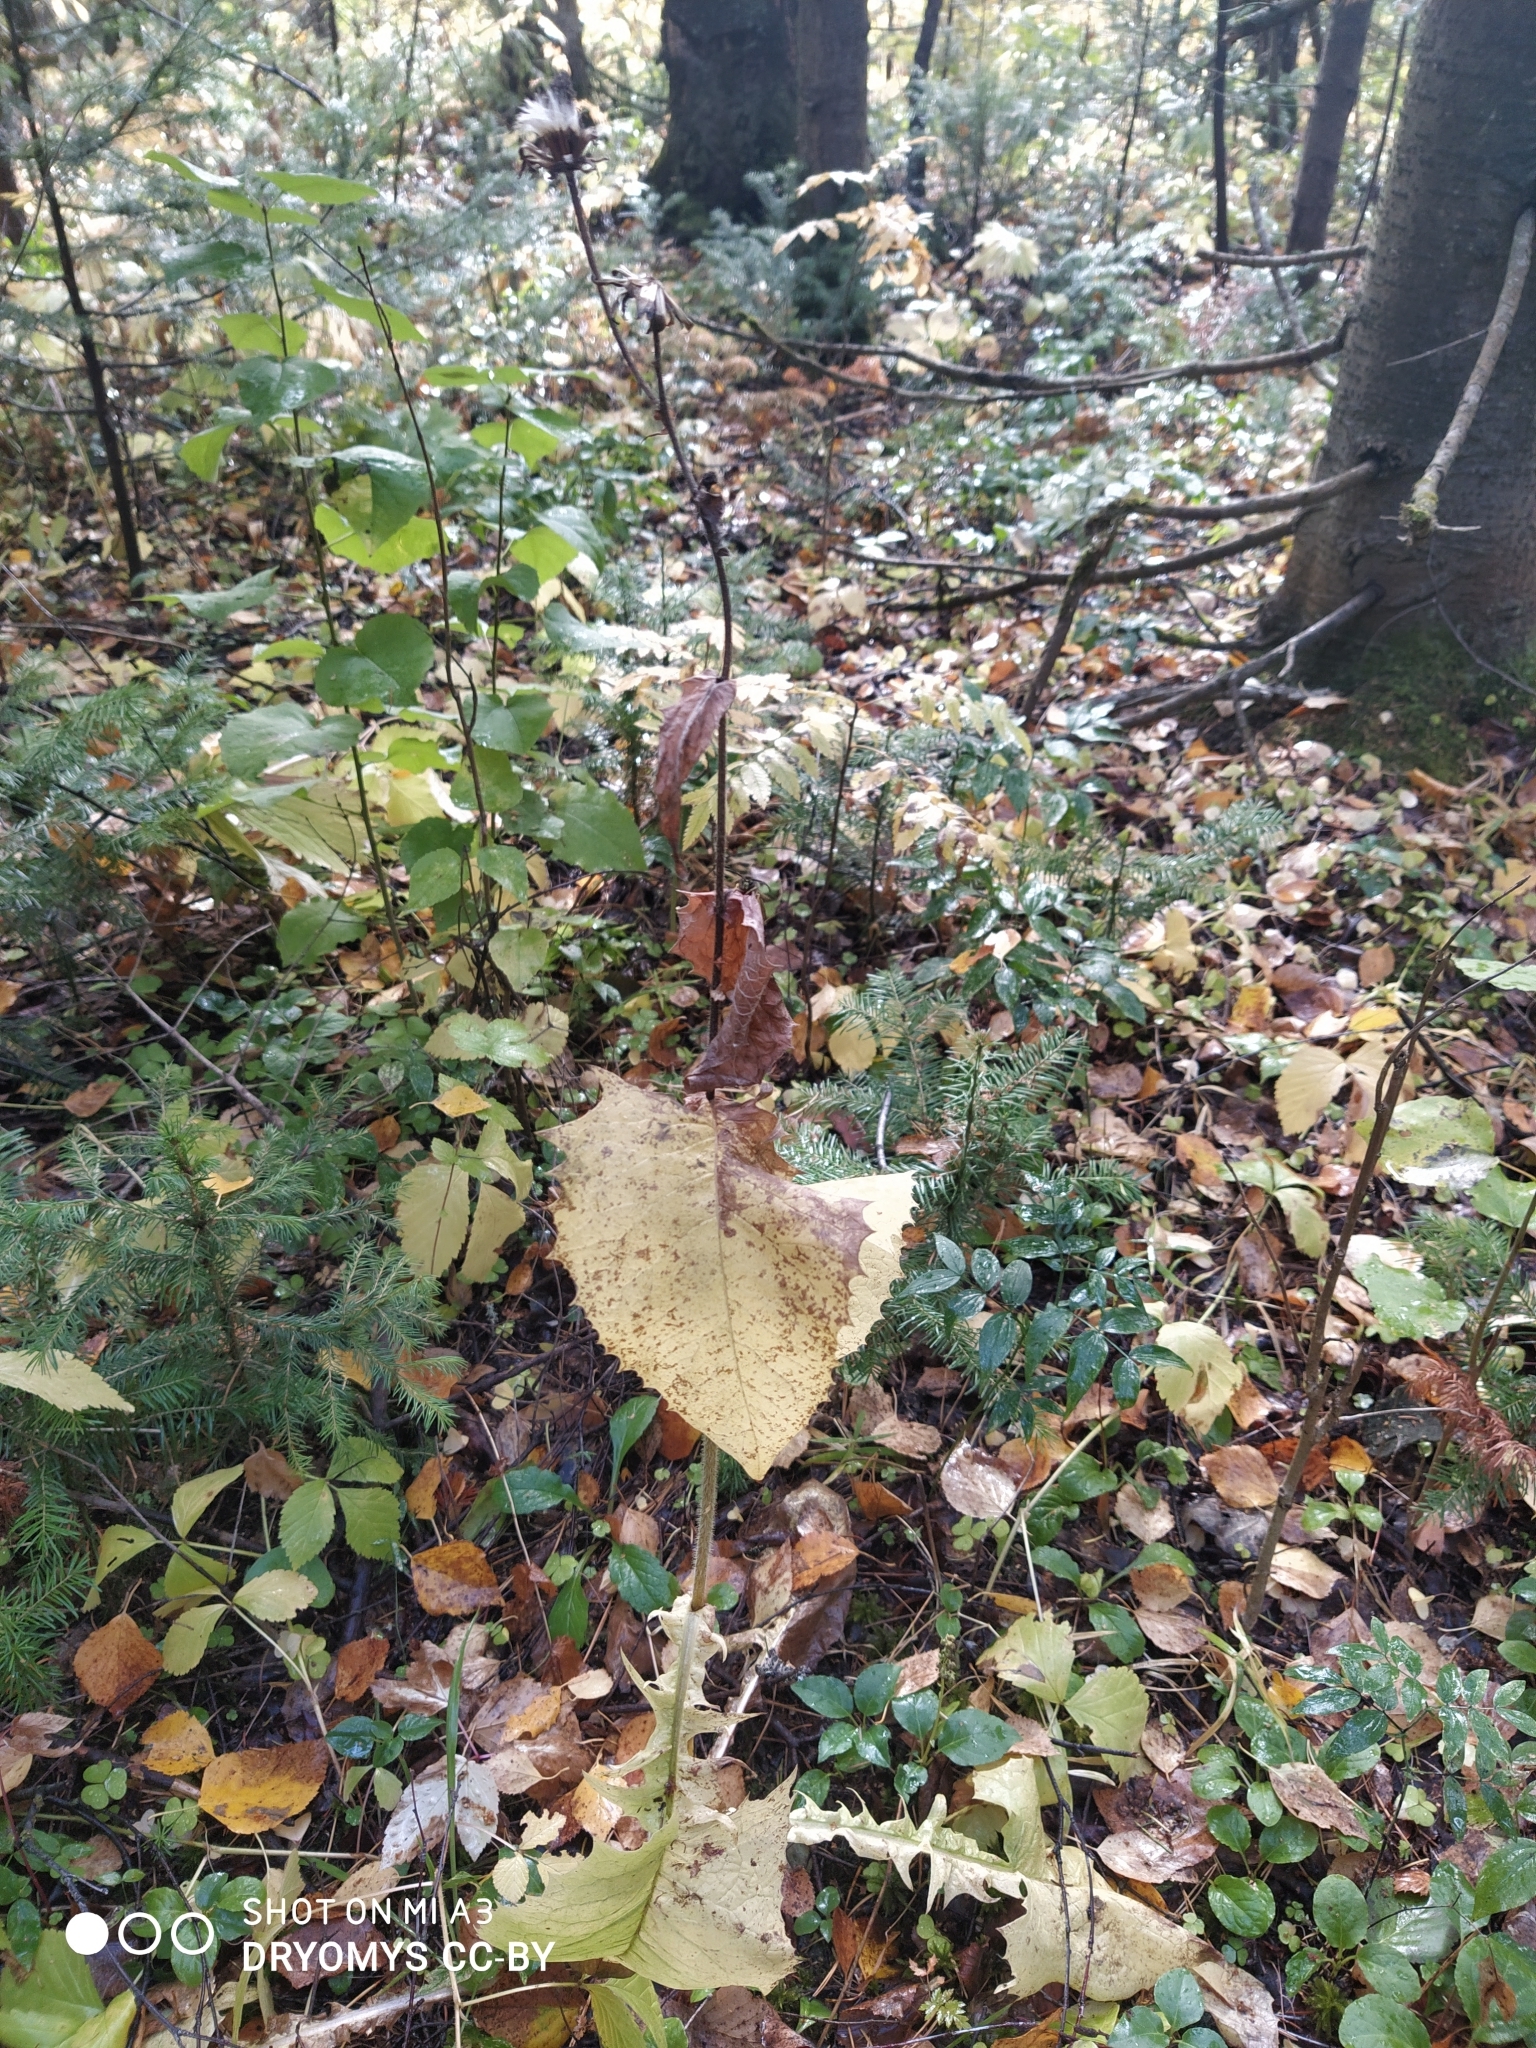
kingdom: Plantae
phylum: Tracheophyta
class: Magnoliopsida
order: Asterales
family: Asteraceae
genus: Crepis
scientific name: Crepis sibirica
